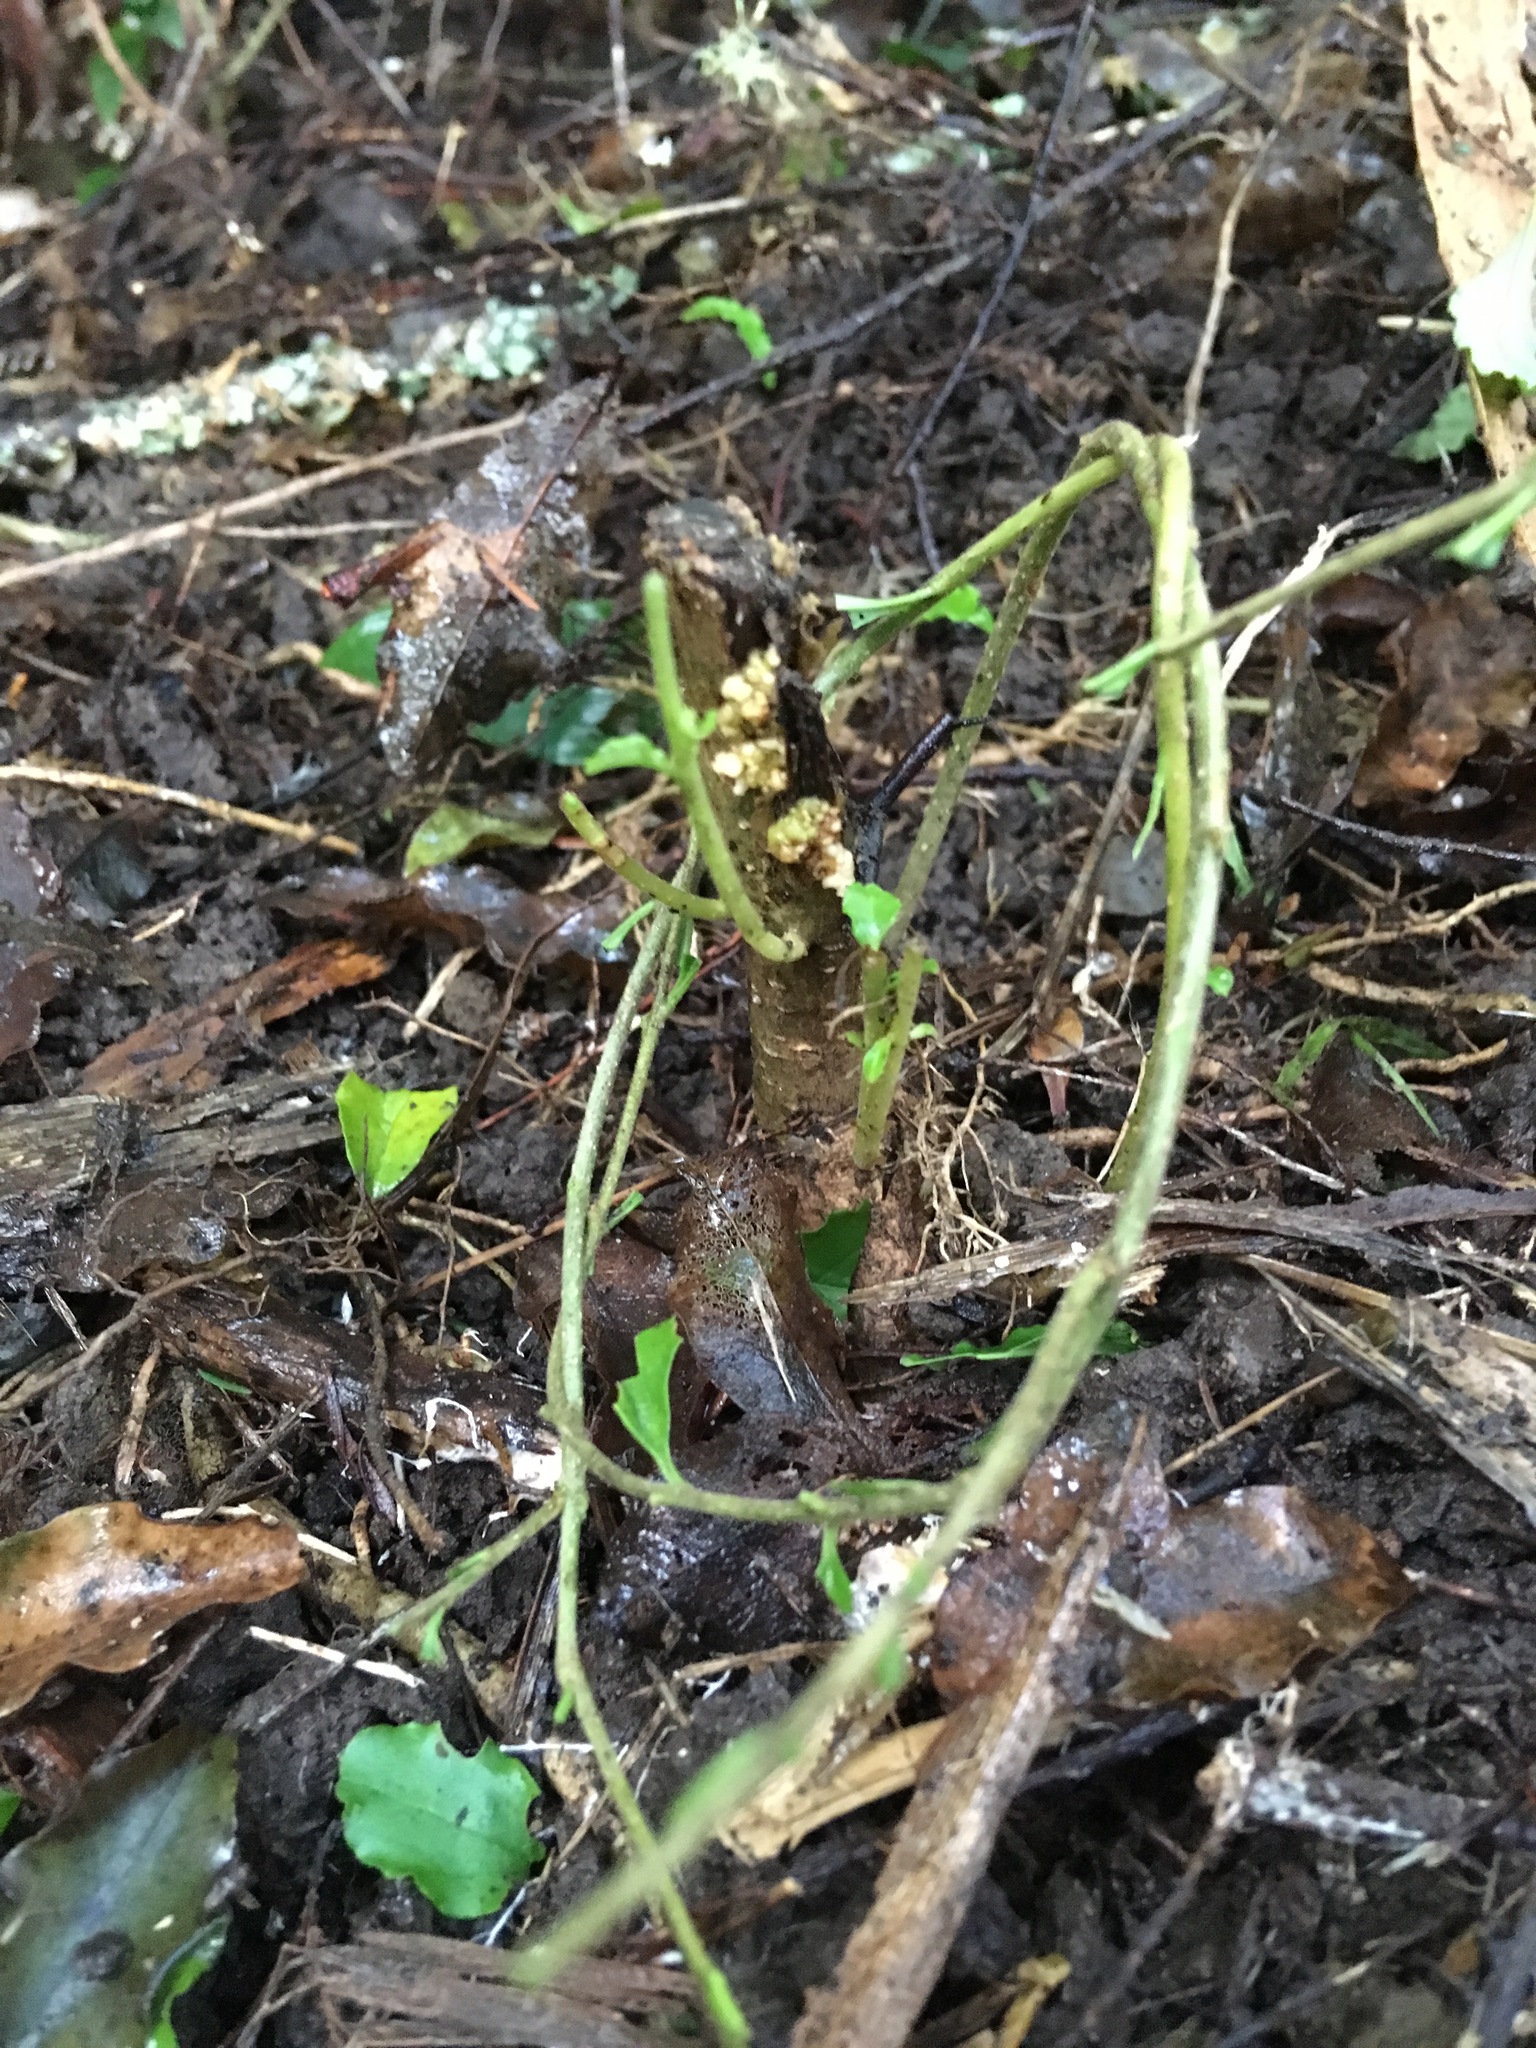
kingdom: Plantae
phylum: Tracheophyta
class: Magnoliopsida
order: Lamiales
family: Oleaceae
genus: Ligustrum
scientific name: Ligustrum sinense
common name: Chinese privet
